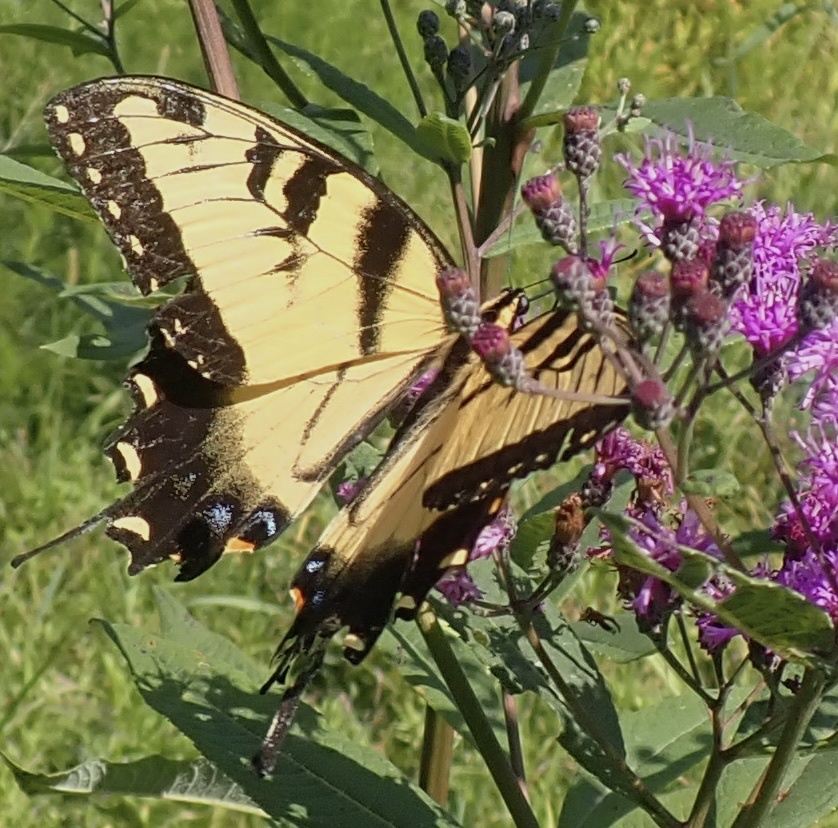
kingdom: Animalia
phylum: Arthropoda
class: Insecta
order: Lepidoptera
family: Papilionidae
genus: Papilio
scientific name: Papilio glaucus
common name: Tiger swallowtail
